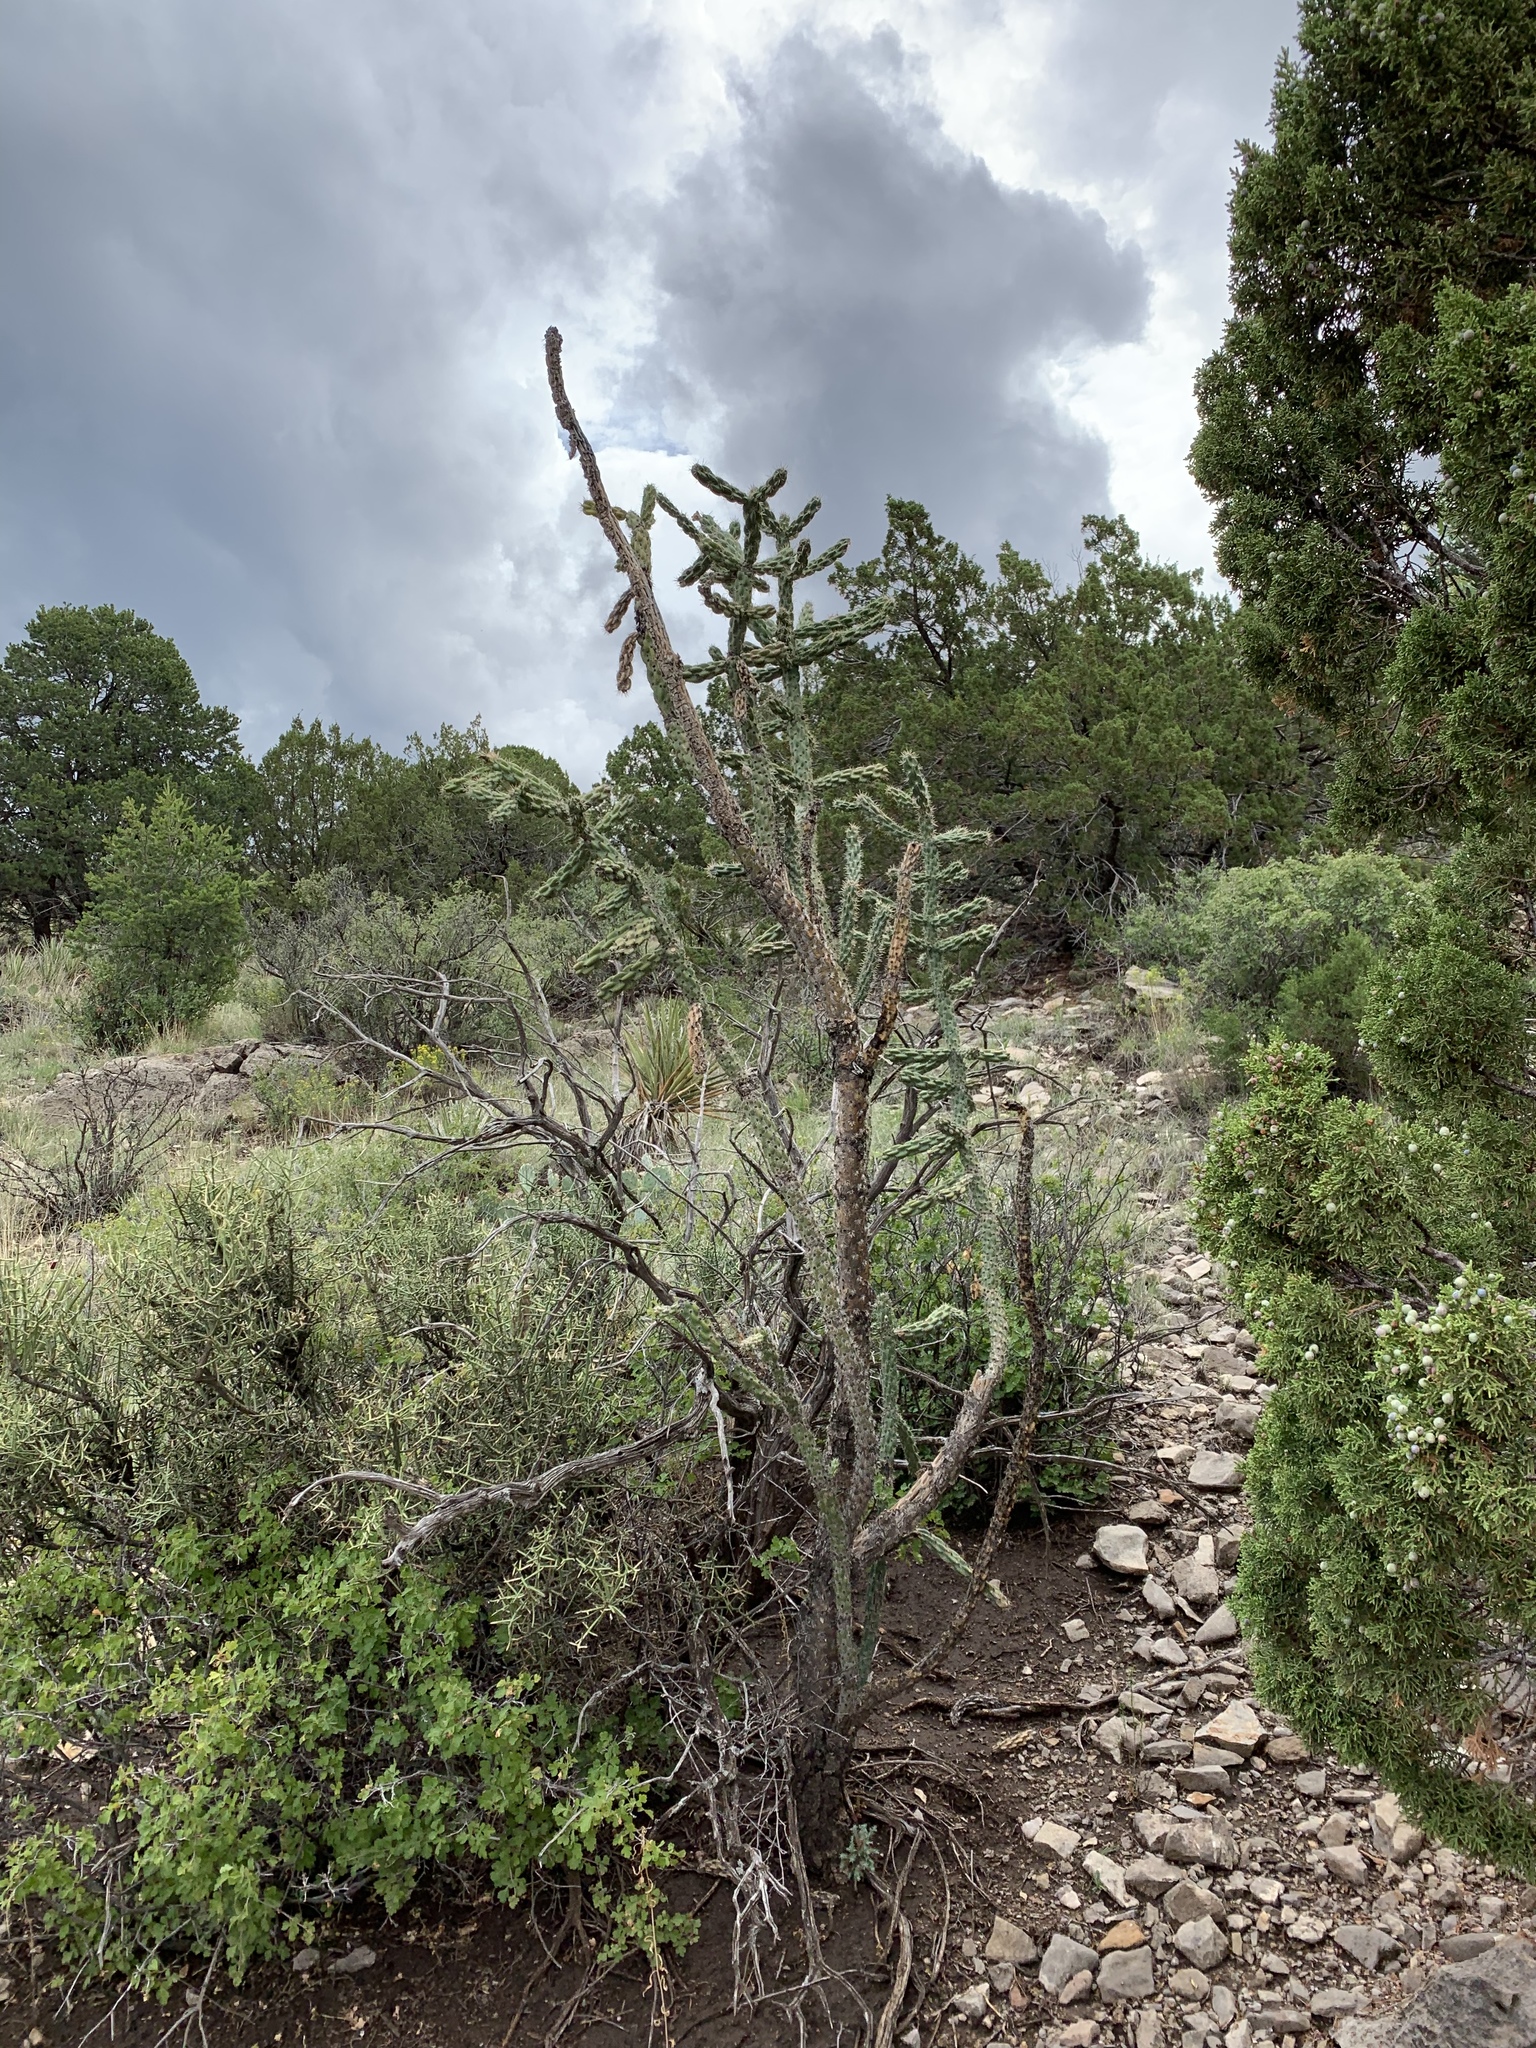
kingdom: Plantae
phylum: Tracheophyta
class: Magnoliopsida
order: Caryophyllales
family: Cactaceae
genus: Cylindropuntia
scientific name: Cylindropuntia imbricata
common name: Candelabrum cactus
